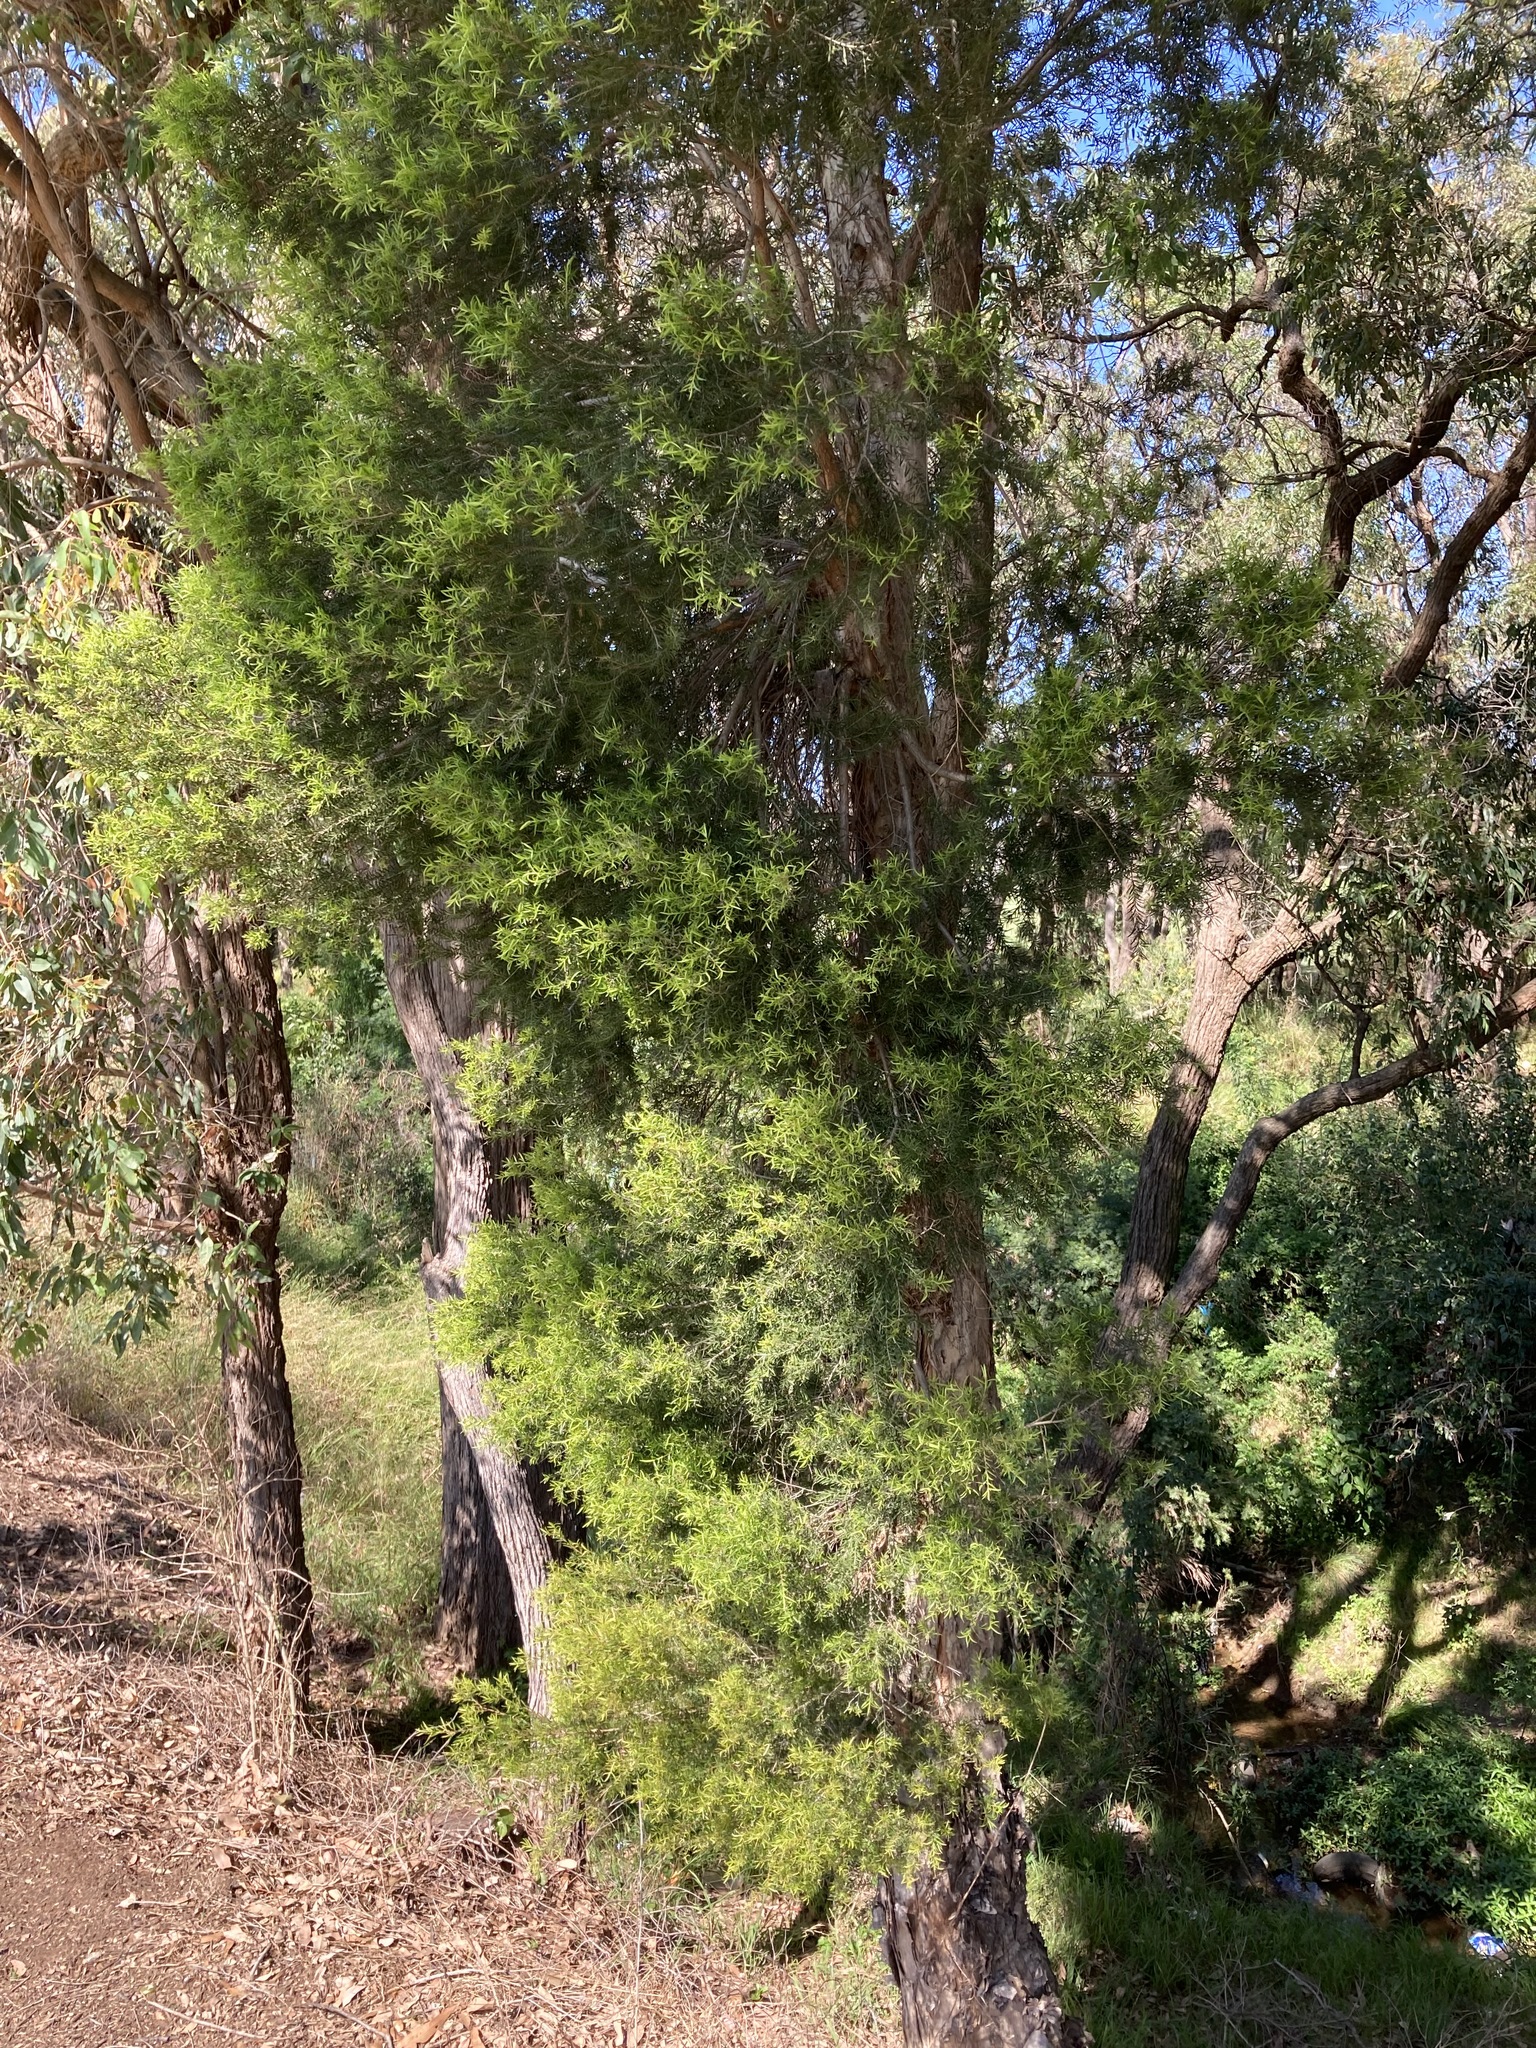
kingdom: Plantae
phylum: Tracheophyta
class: Magnoliopsida
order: Myrtales
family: Myrtaceae
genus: Melaleuca
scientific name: Melaleuca decora
